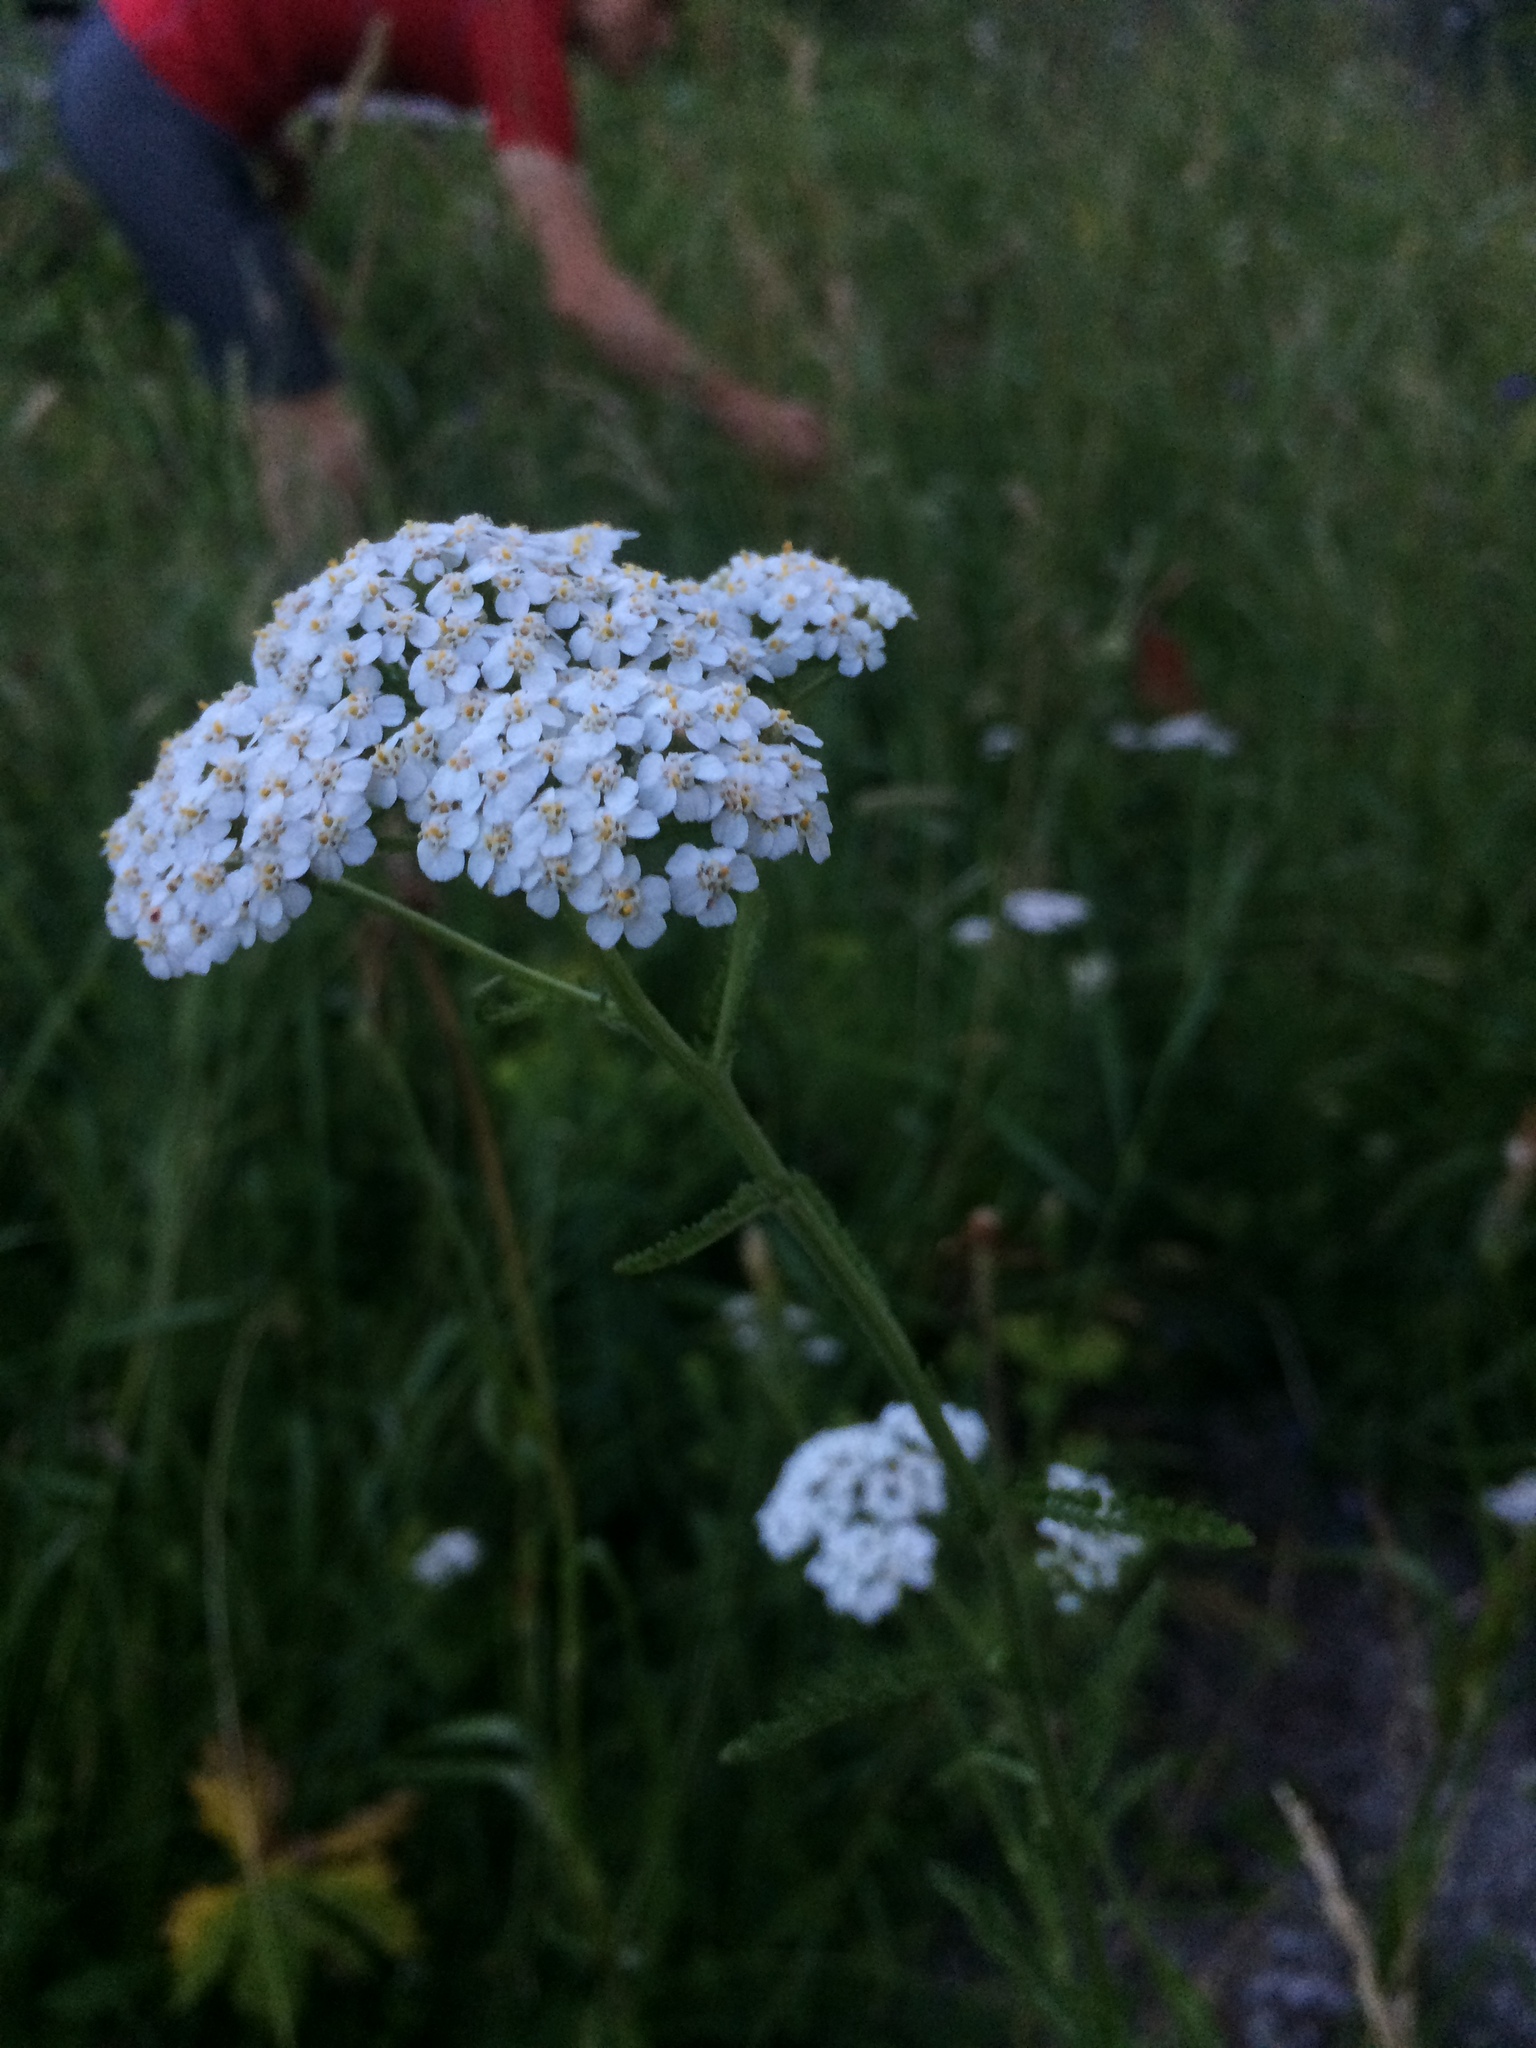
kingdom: Plantae
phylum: Tracheophyta
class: Magnoliopsida
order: Asterales
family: Asteraceae
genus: Achillea
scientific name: Achillea millefolium
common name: Yarrow
